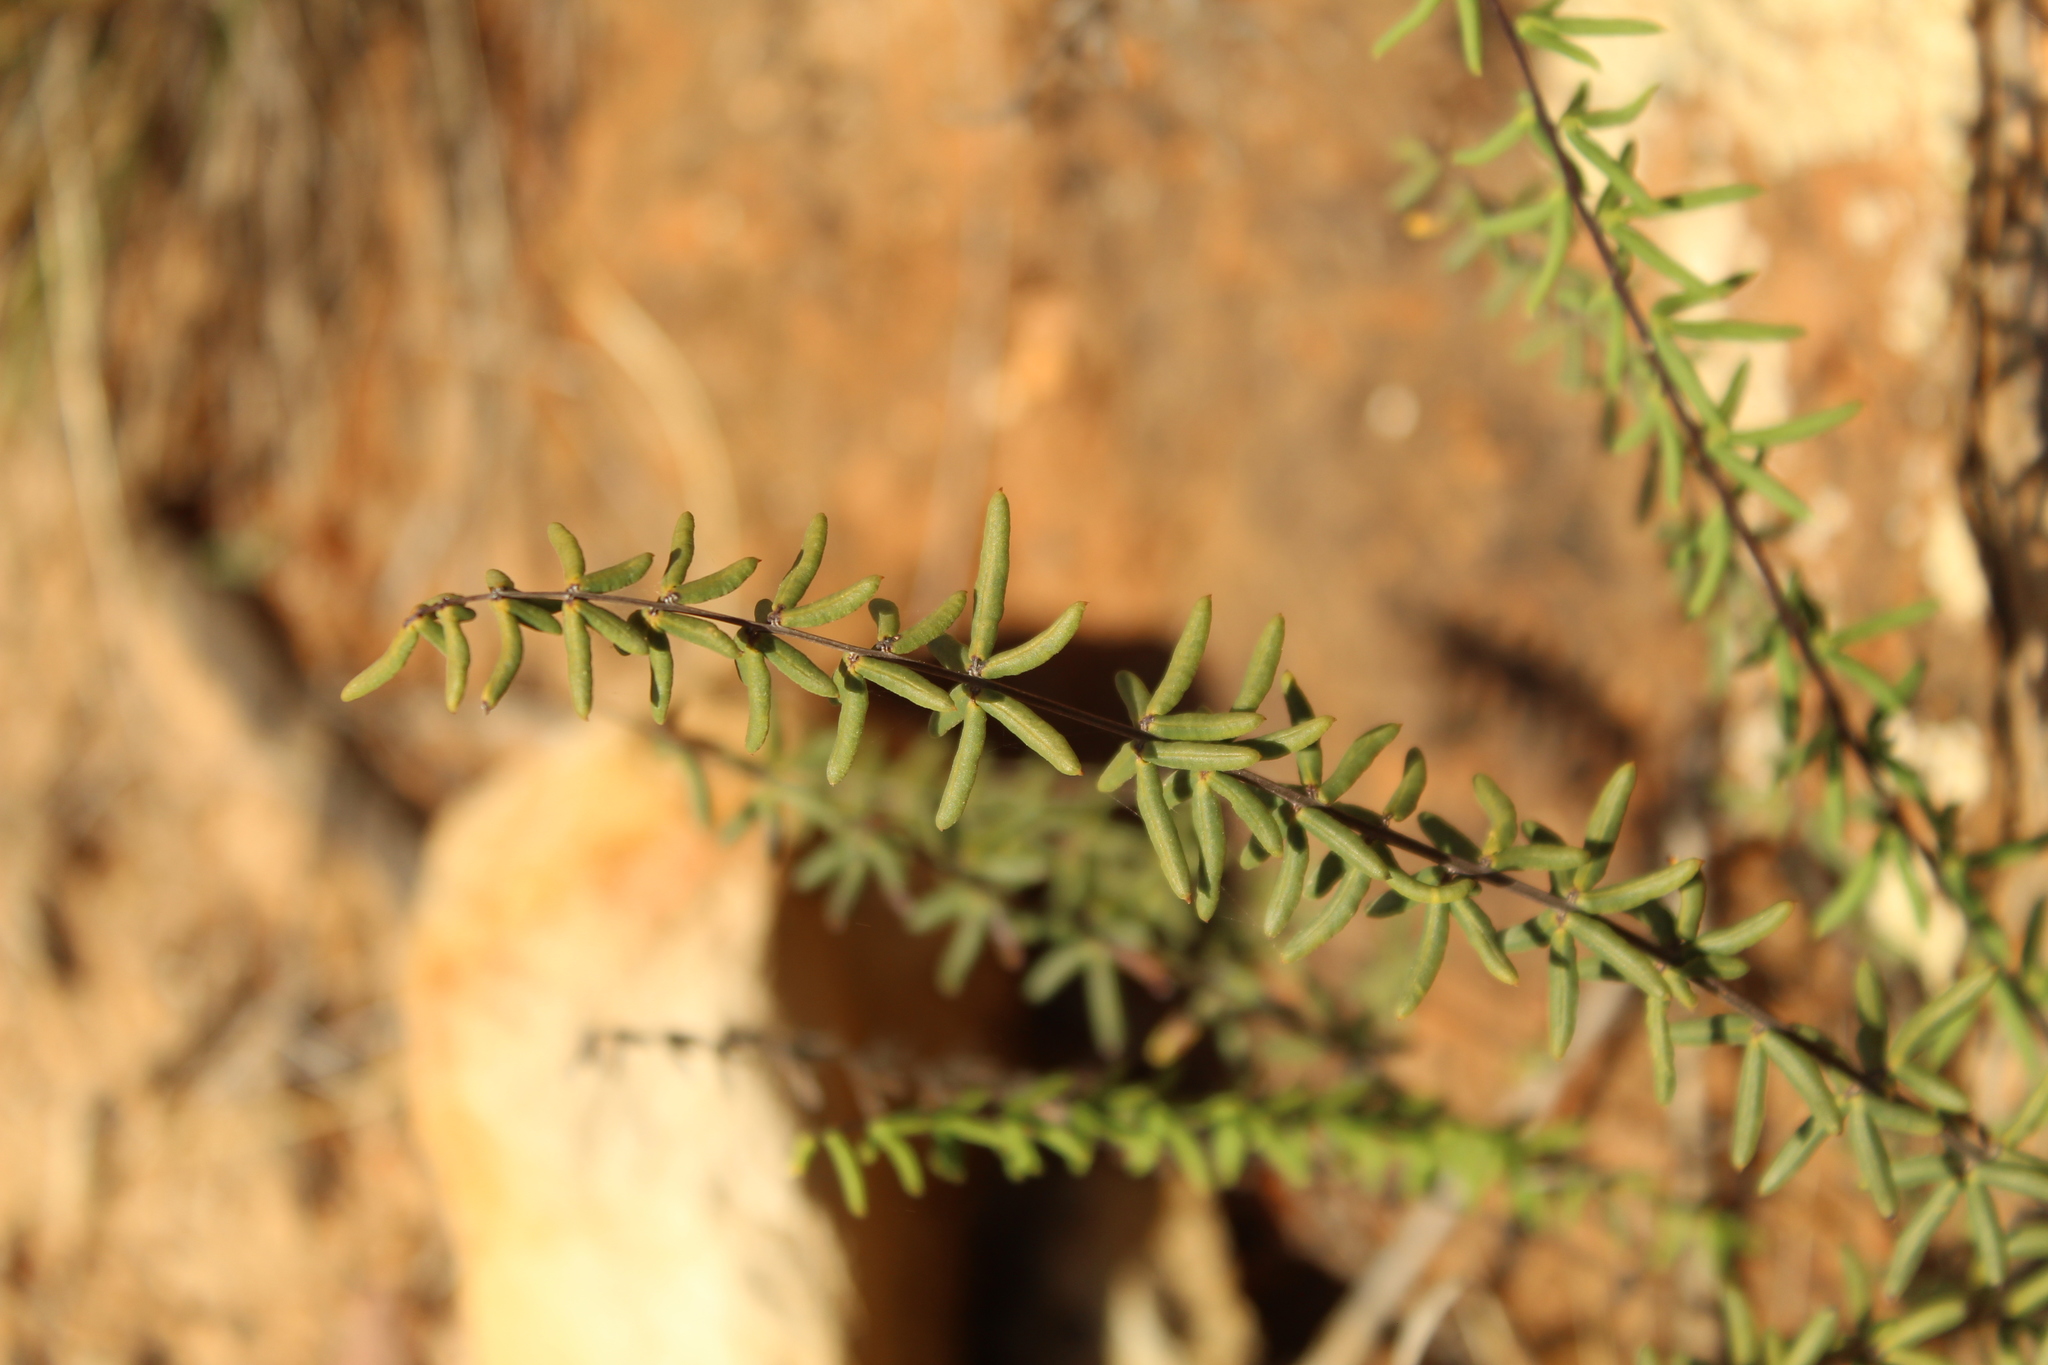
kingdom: Plantae
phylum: Tracheophyta
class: Polypodiopsida
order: Polypodiales
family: Pteridaceae
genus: Pellaea
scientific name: Pellaea ternifolia
